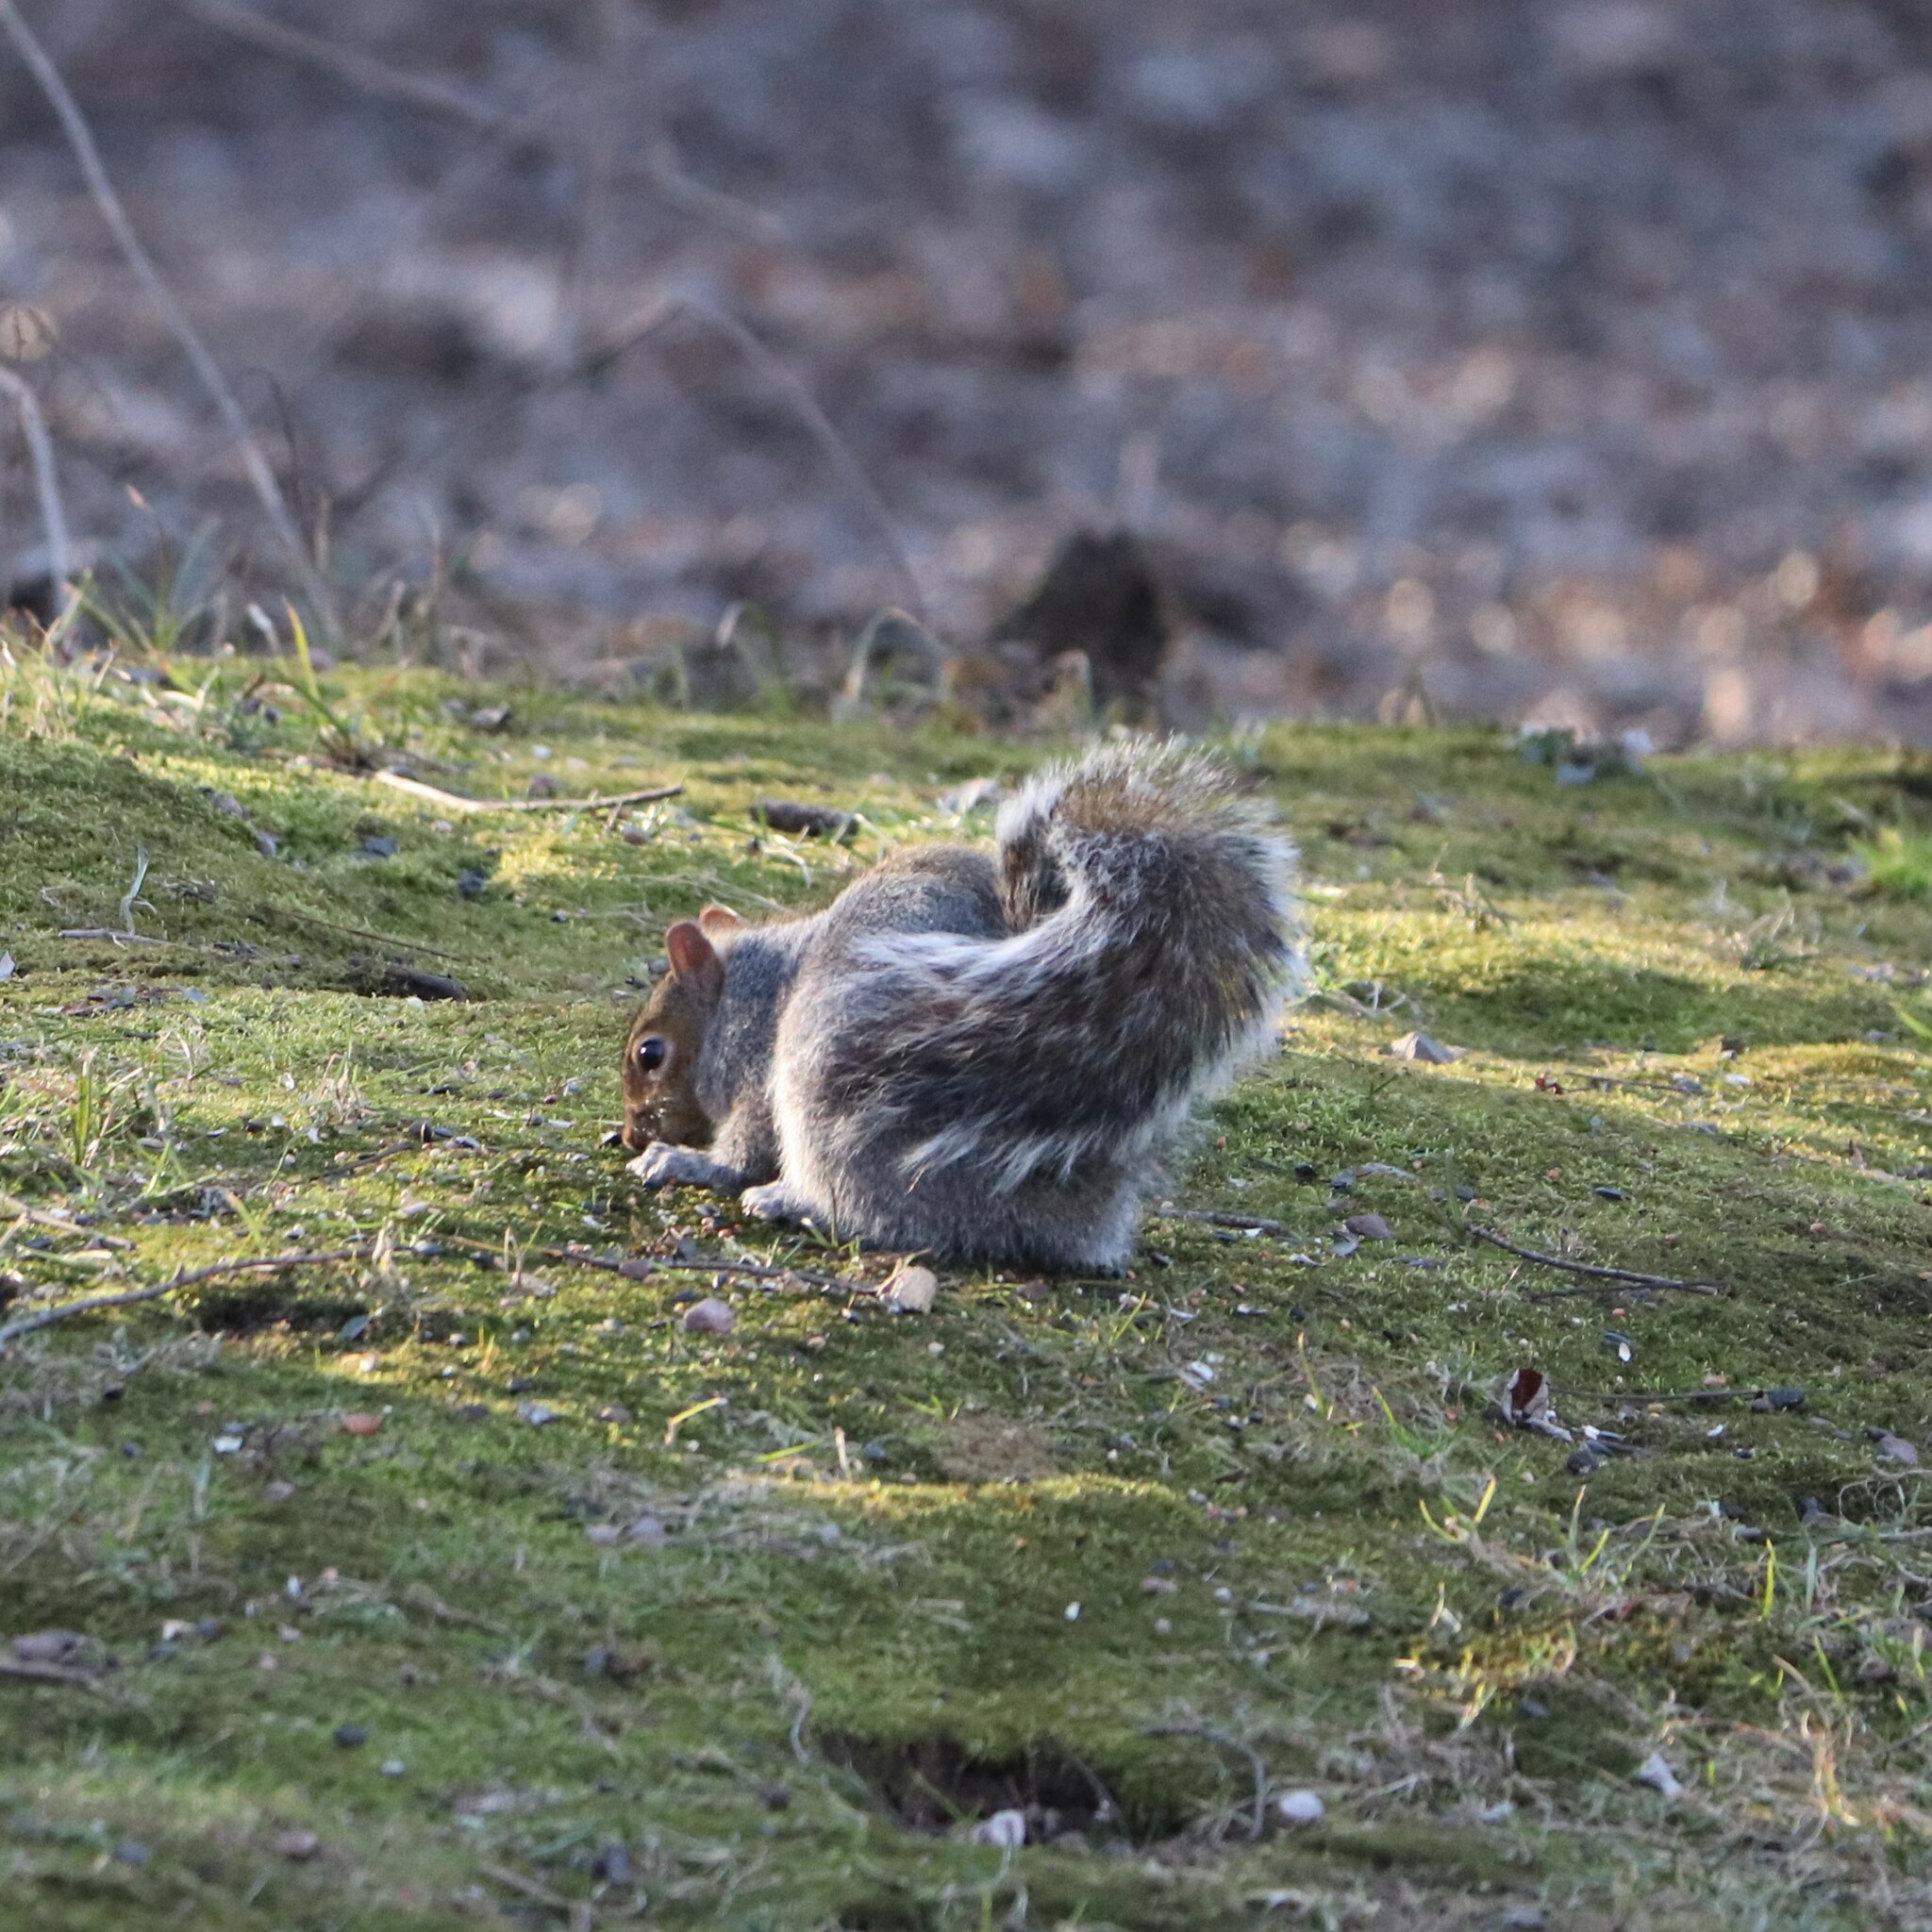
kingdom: Animalia
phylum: Chordata
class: Mammalia
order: Rodentia
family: Sciuridae
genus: Sciurus
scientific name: Sciurus carolinensis
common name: Eastern gray squirrel
